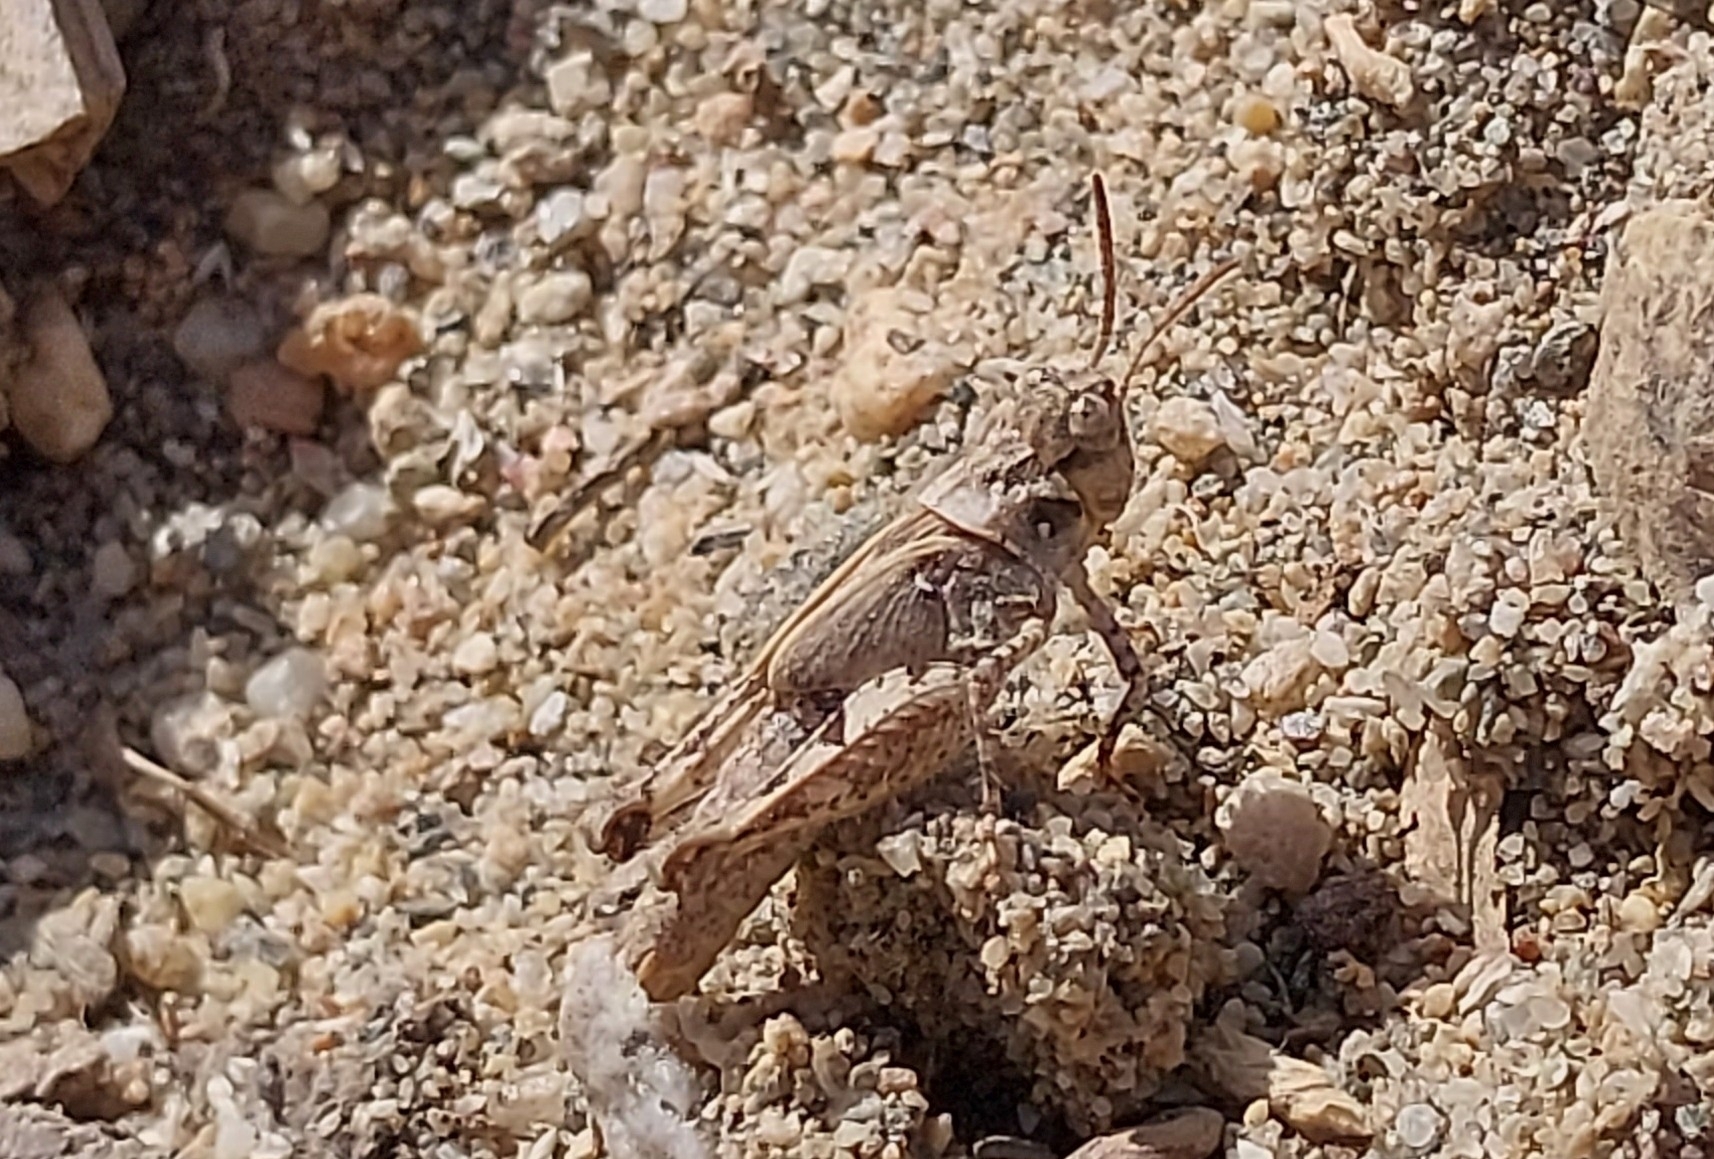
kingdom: Animalia
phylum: Arthropoda
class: Insecta
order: Orthoptera
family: Acrididae
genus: Acrotylus
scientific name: Acrotylus
